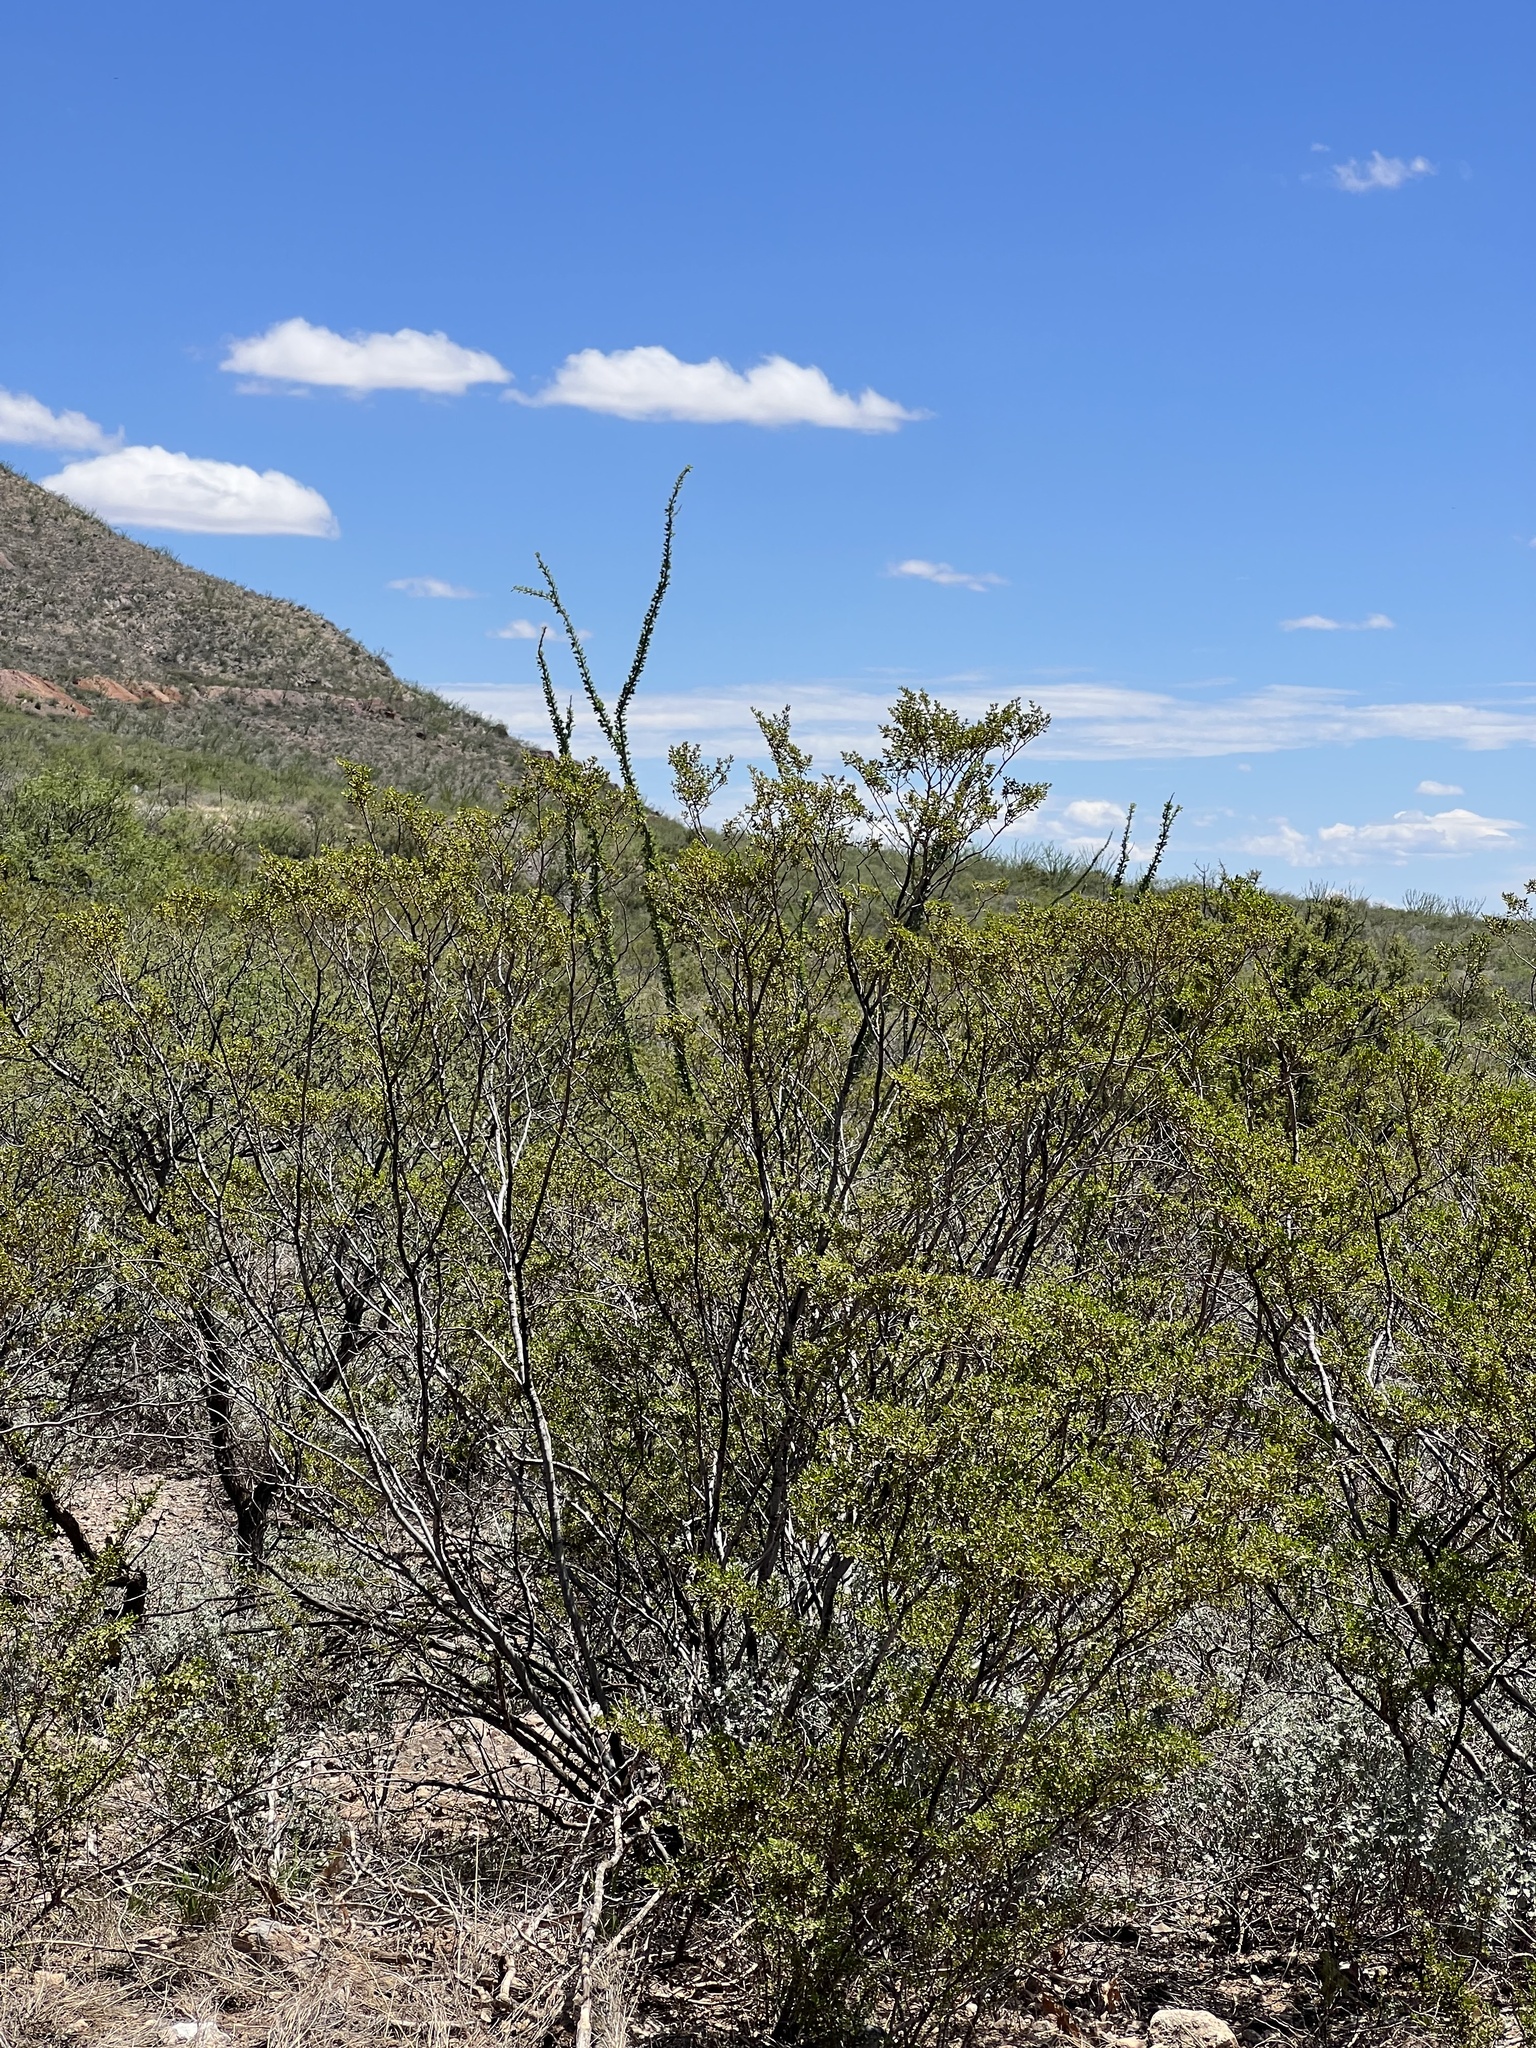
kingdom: Plantae
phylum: Tracheophyta
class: Magnoliopsida
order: Zygophyllales
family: Zygophyllaceae
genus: Larrea
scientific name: Larrea tridentata
